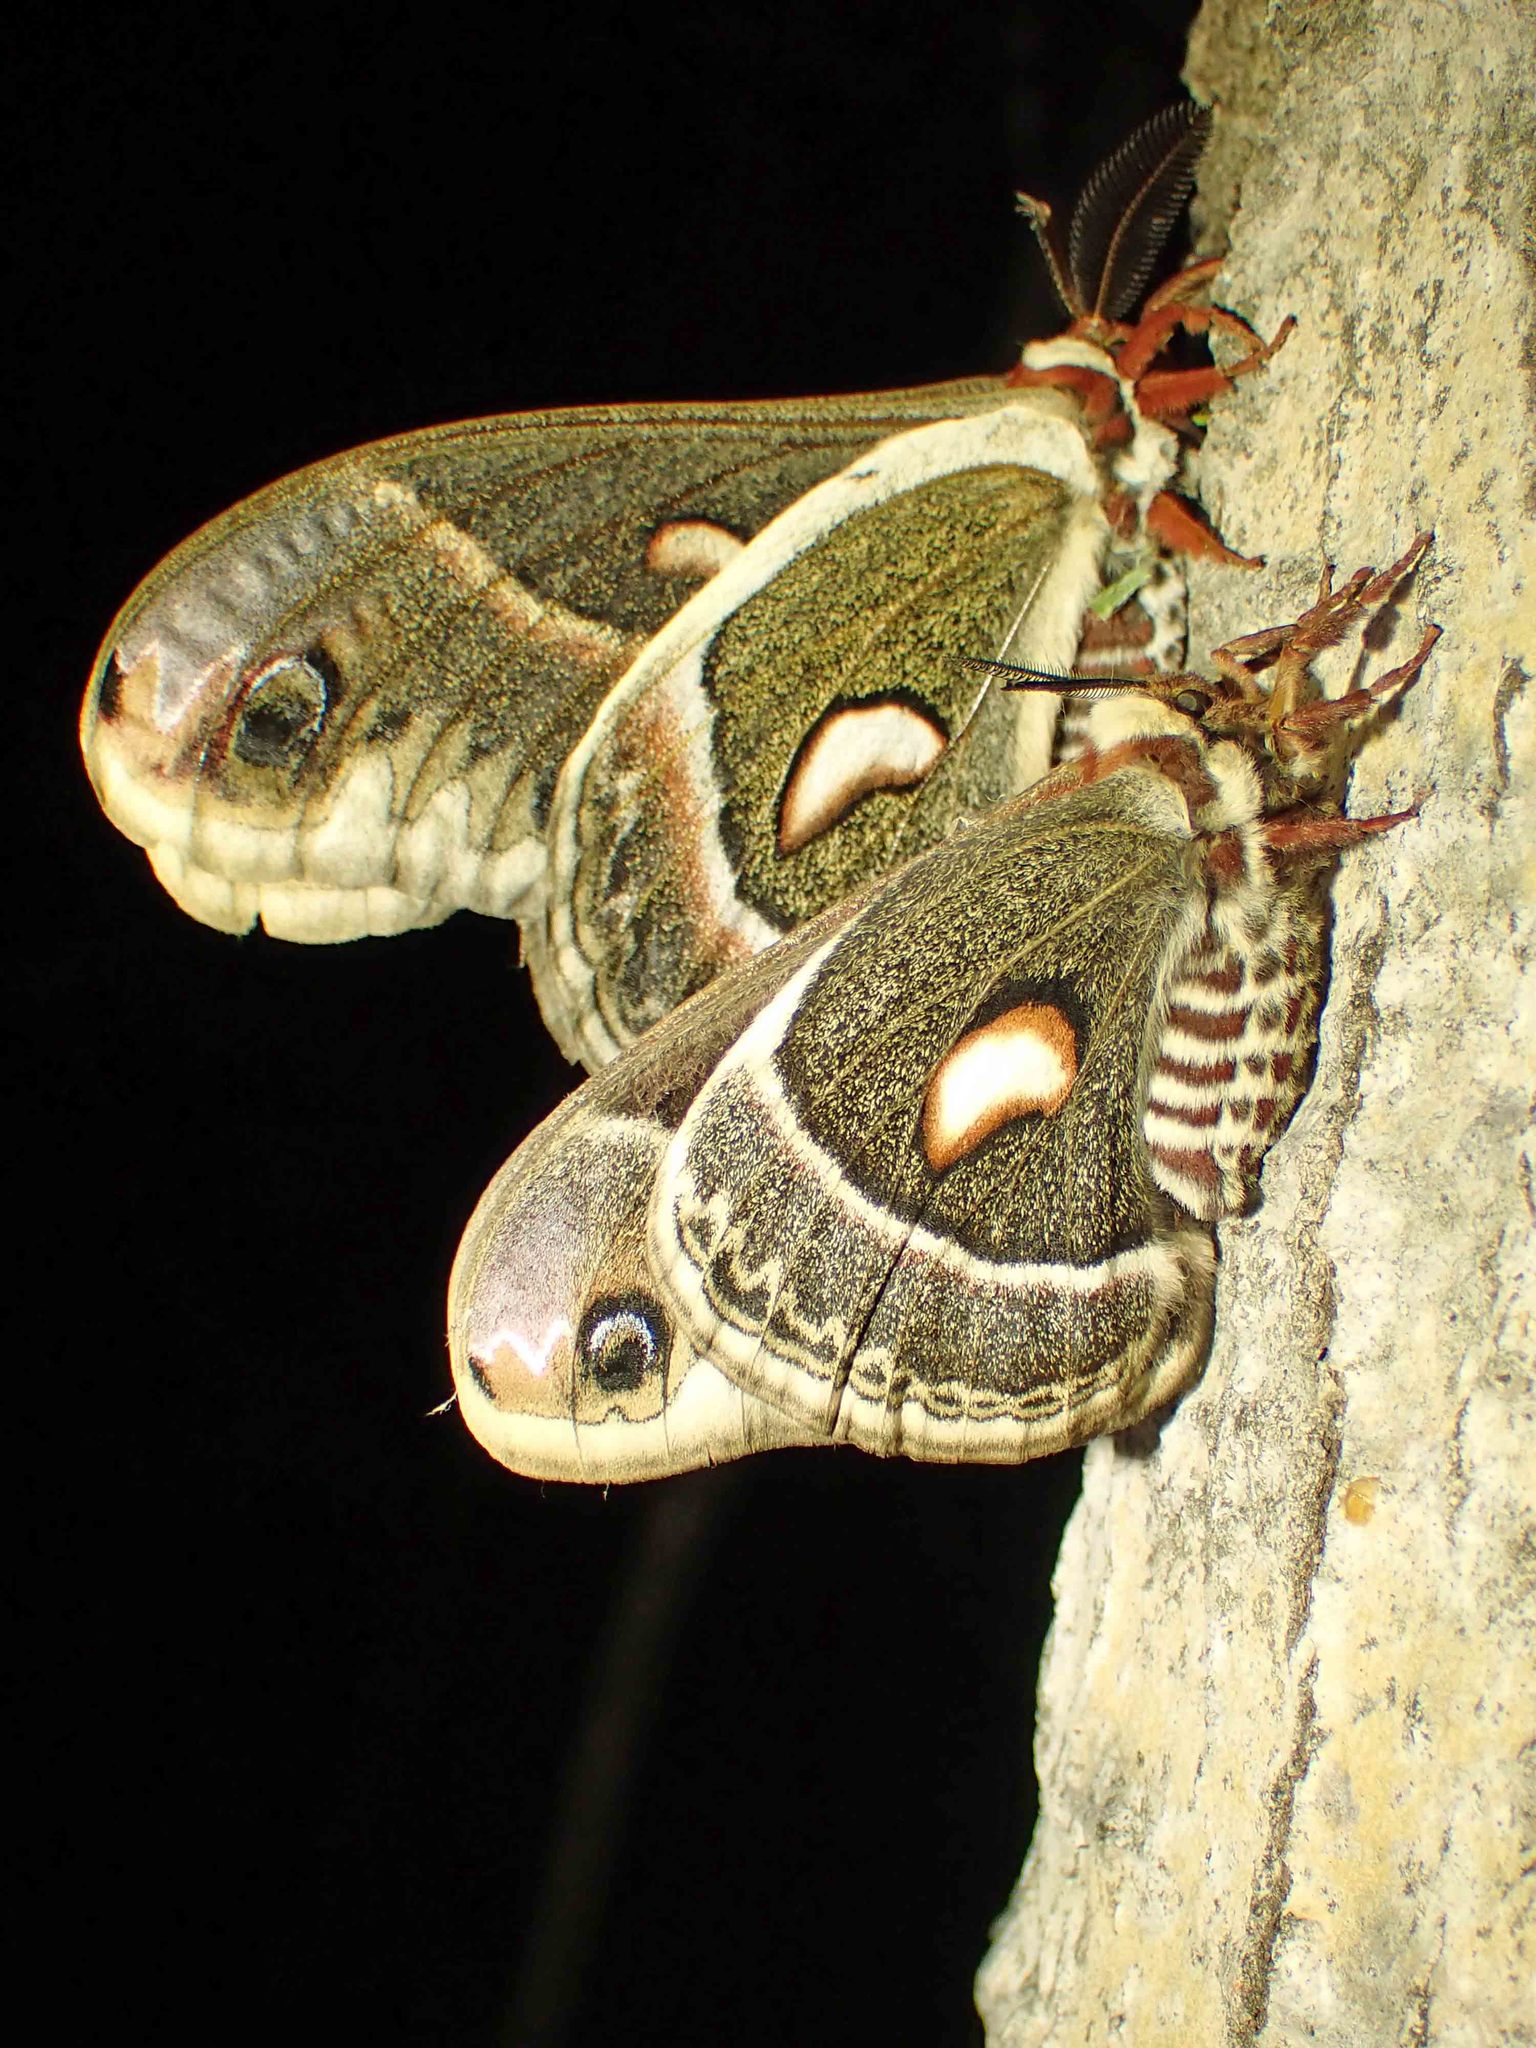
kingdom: Animalia
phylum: Arthropoda
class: Insecta
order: Lepidoptera
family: Saturniidae
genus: Hyalophora
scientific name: Hyalophora cecropia
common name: Cecropia silkmoth
